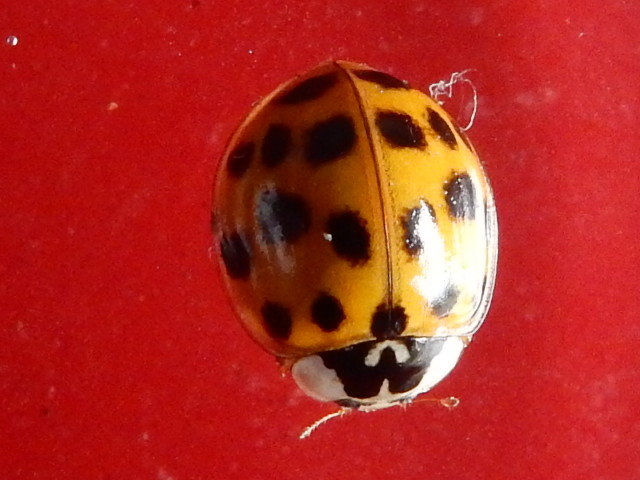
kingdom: Animalia
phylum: Arthropoda
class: Insecta
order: Coleoptera
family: Coccinellidae
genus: Harmonia
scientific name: Harmonia axyridis
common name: Harlequin ladybird
